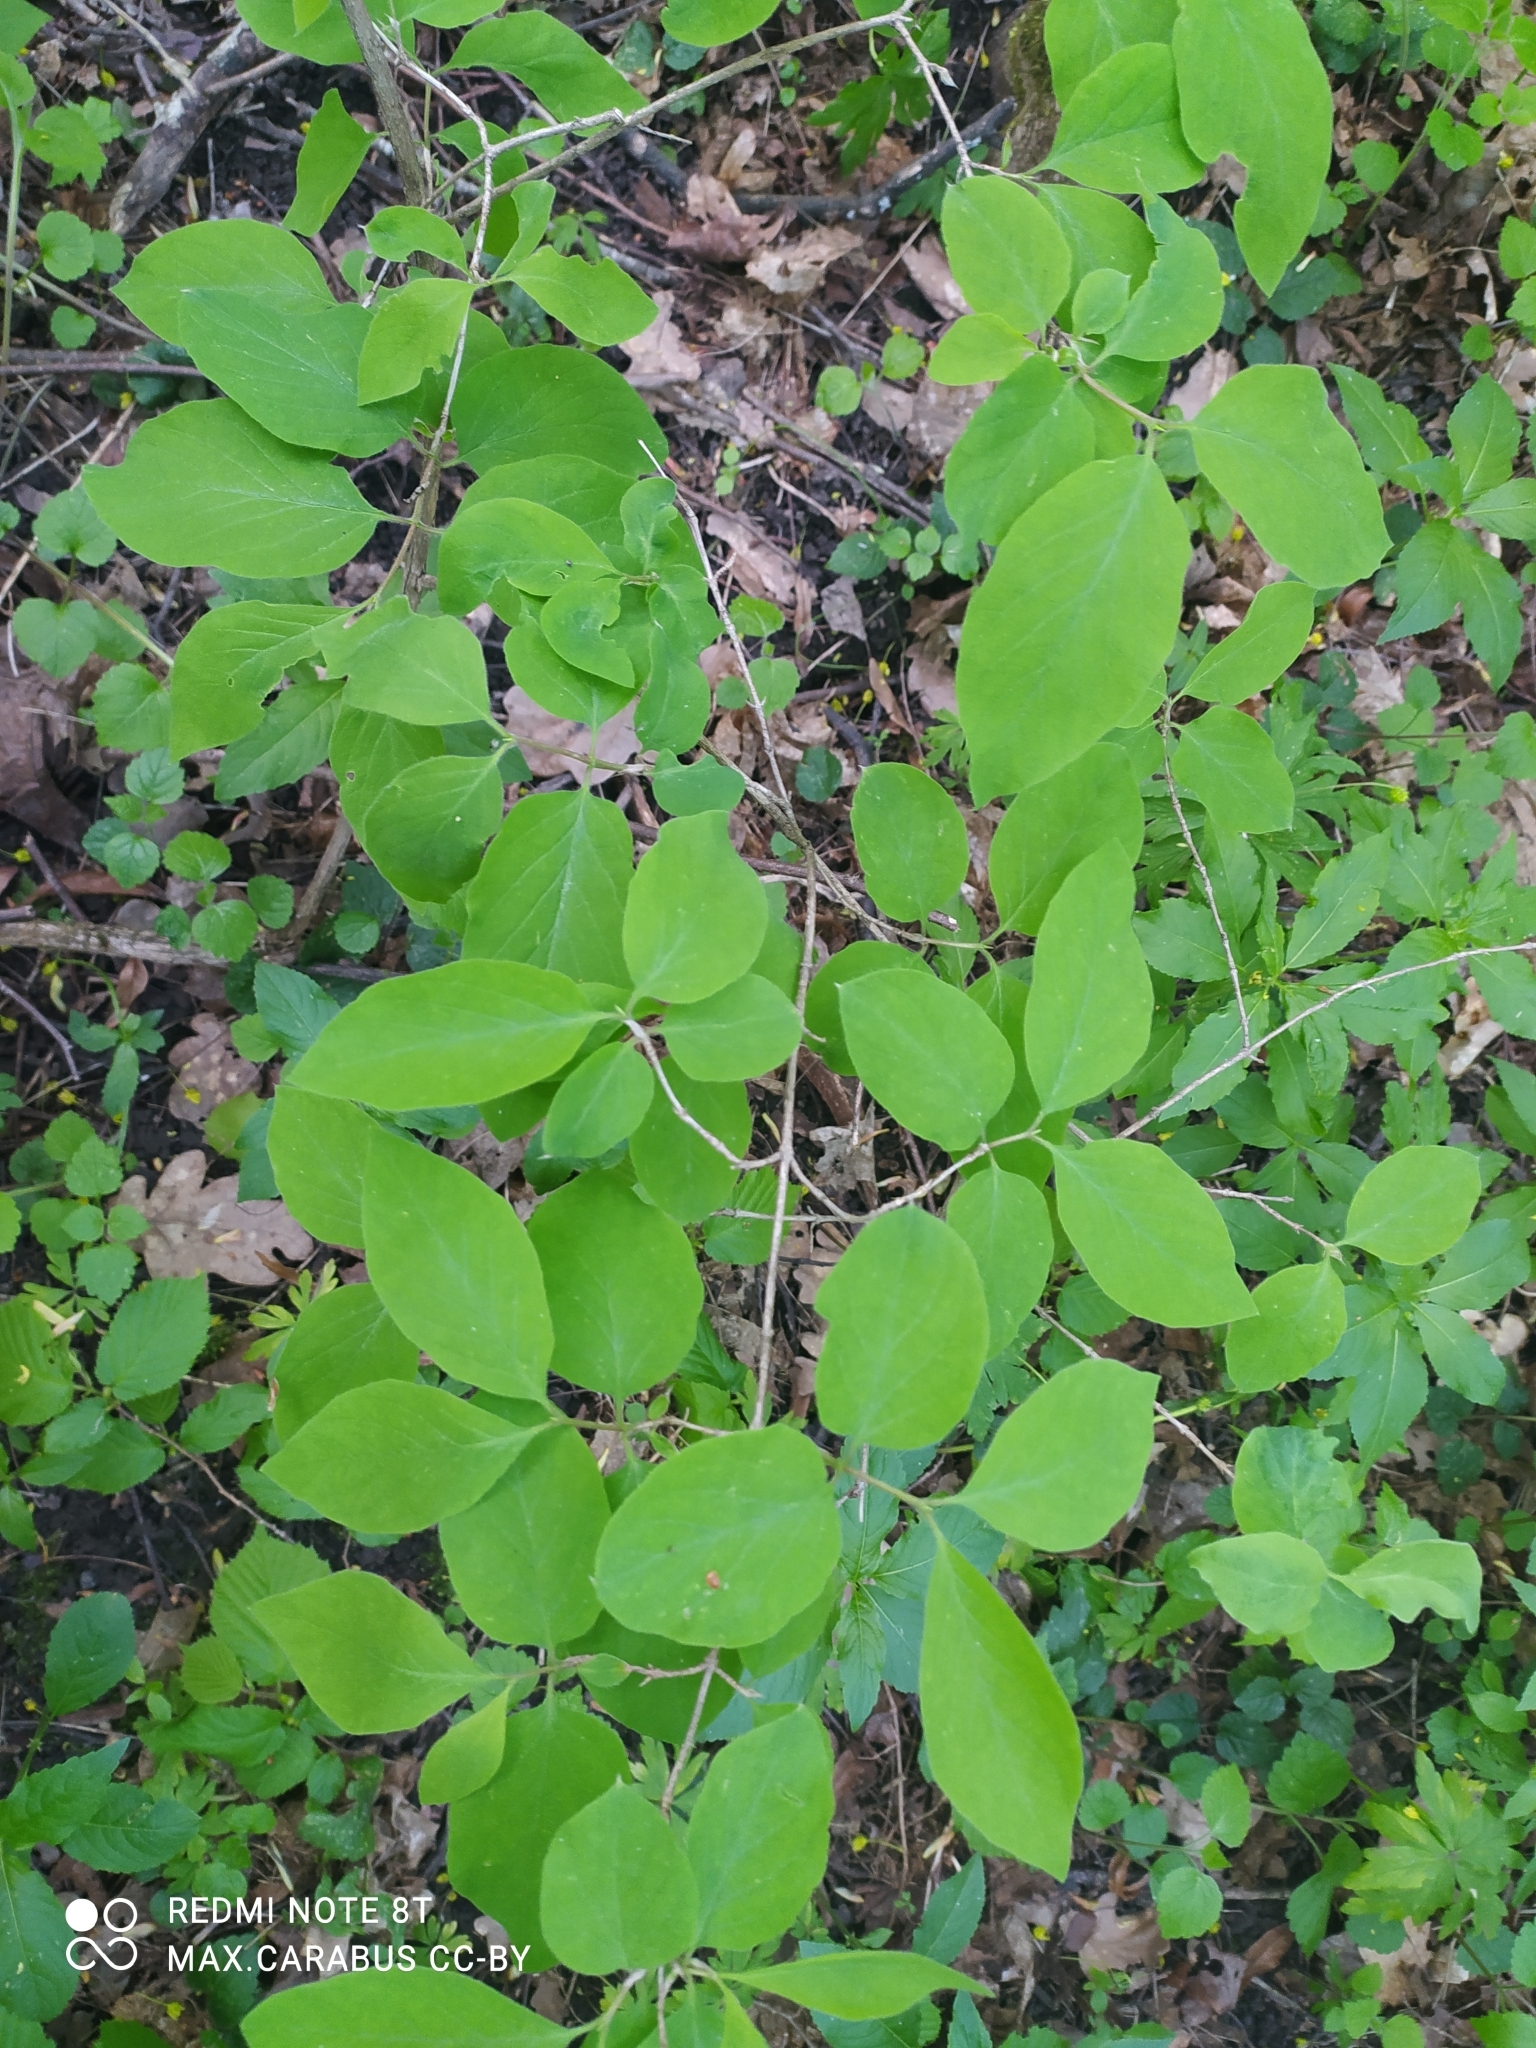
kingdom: Plantae
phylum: Tracheophyta
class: Magnoliopsida
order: Dipsacales
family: Caprifoliaceae
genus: Lonicera
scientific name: Lonicera xylosteum
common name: Fly honeysuckle
